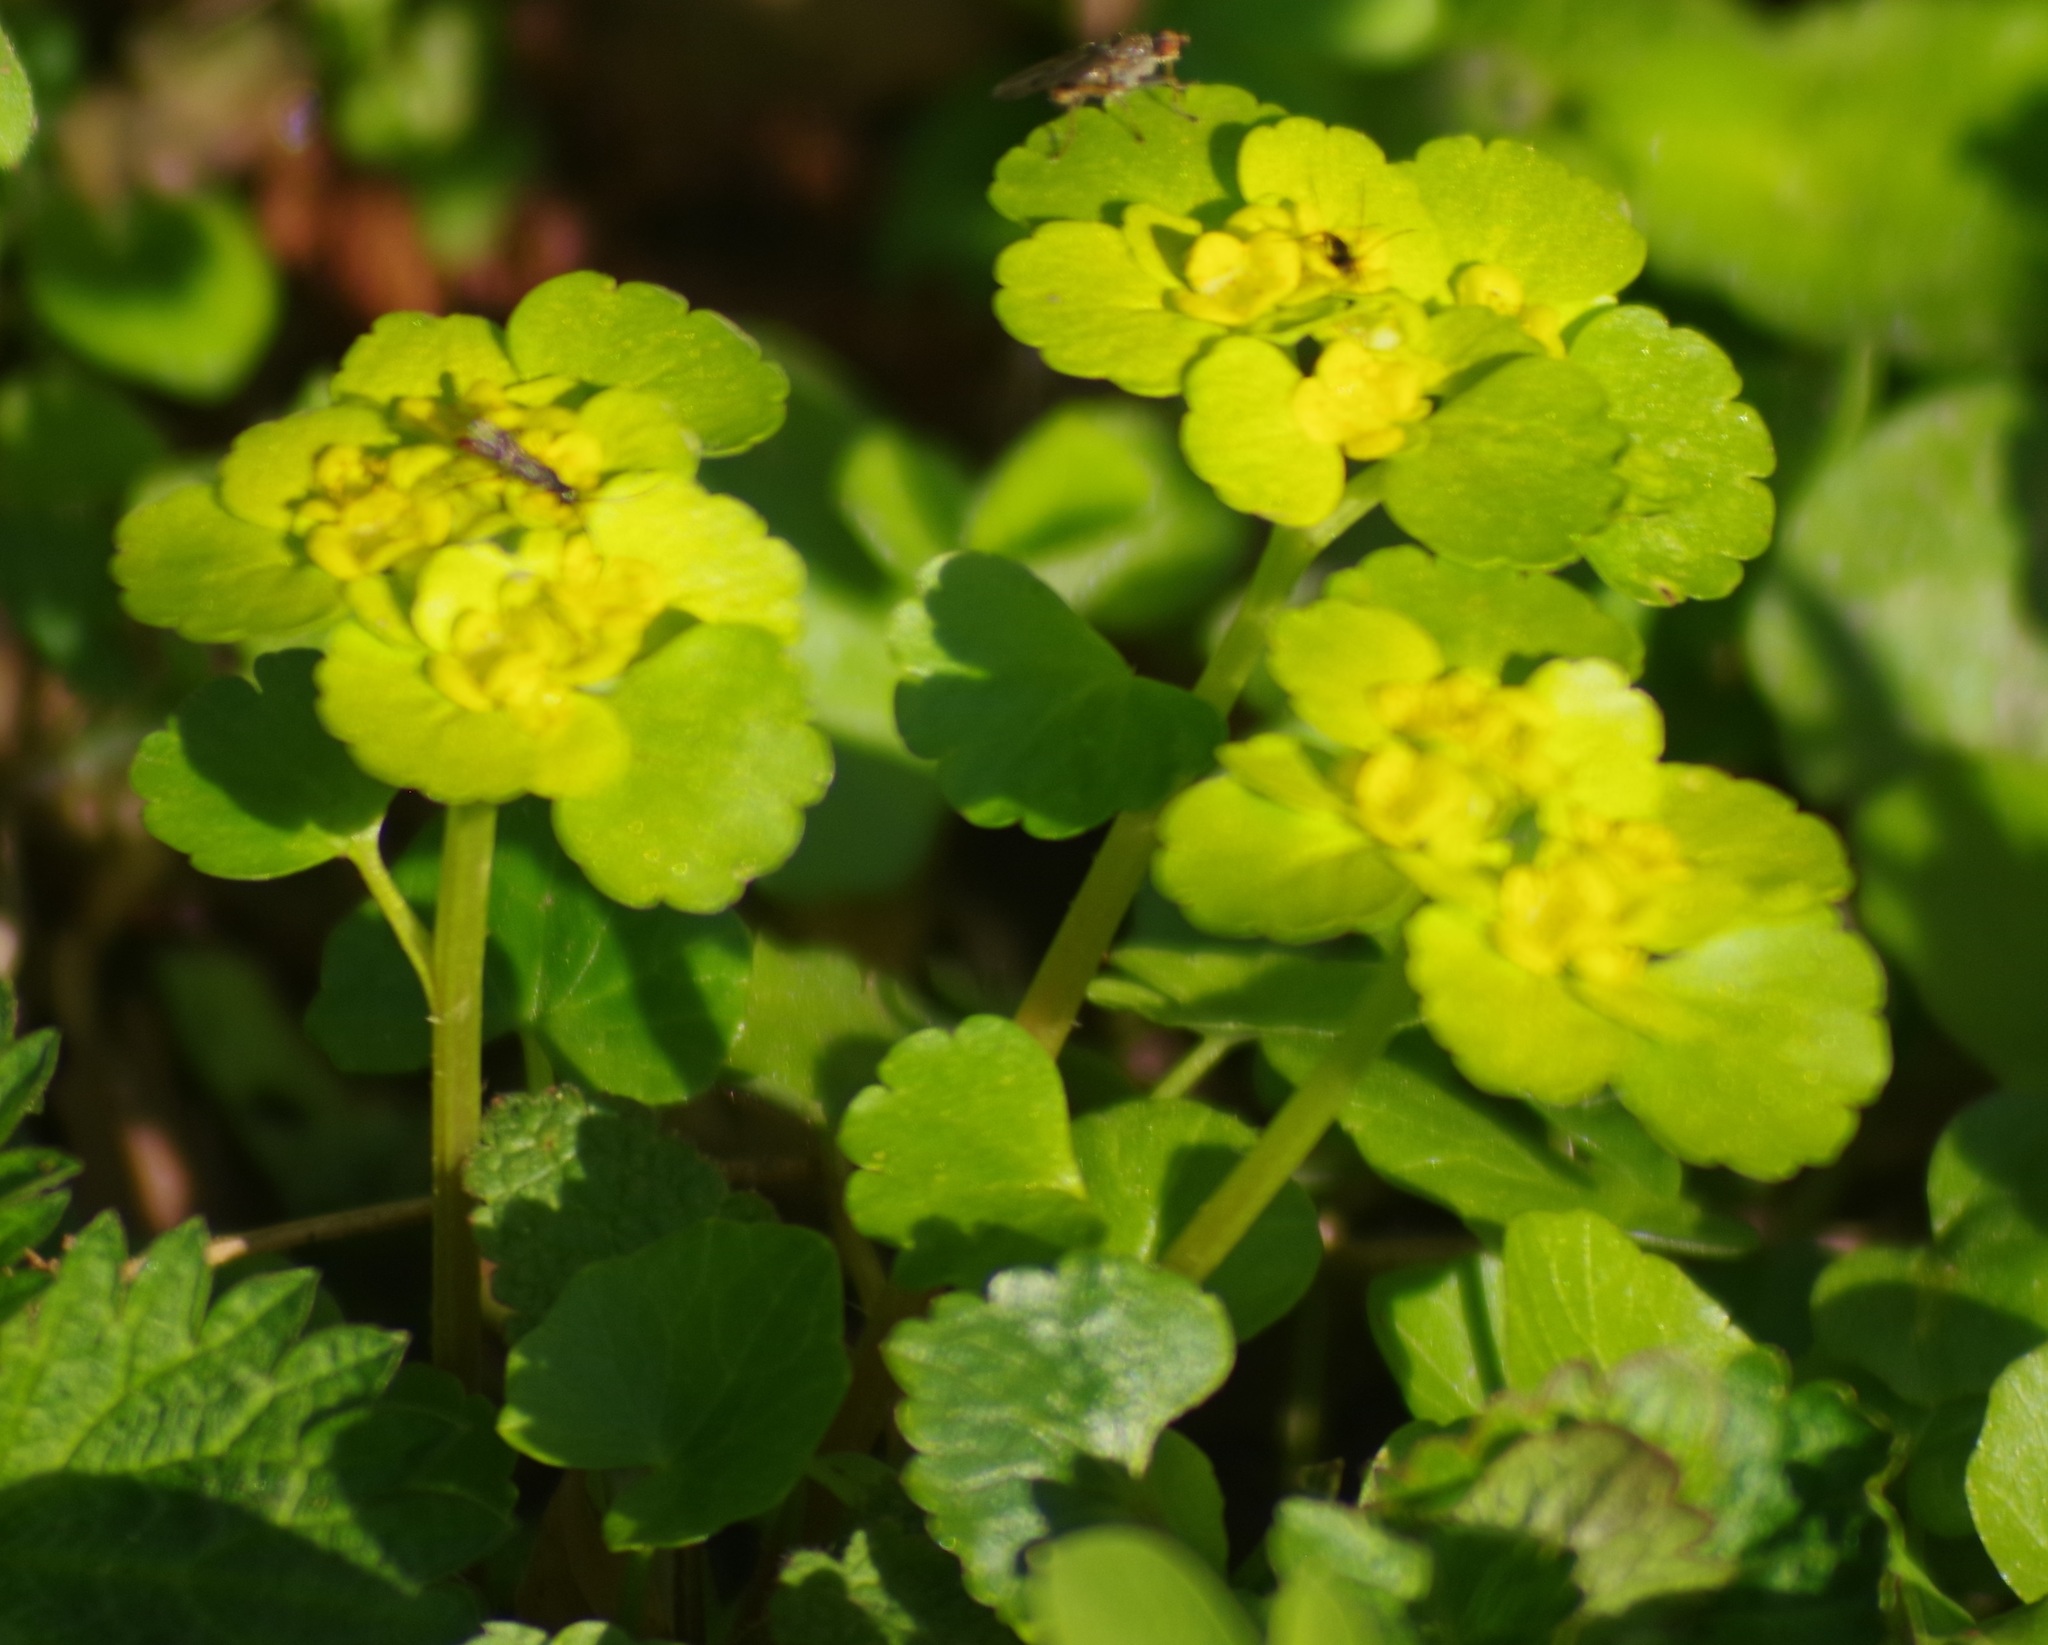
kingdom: Plantae
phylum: Tracheophyta
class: Magnoliopsida
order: Saxifragales
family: Saxifragaceae
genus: Chrysosplenium
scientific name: Chrysosplenium alternifolium
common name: Alternate-leaved golden-saxifrage
